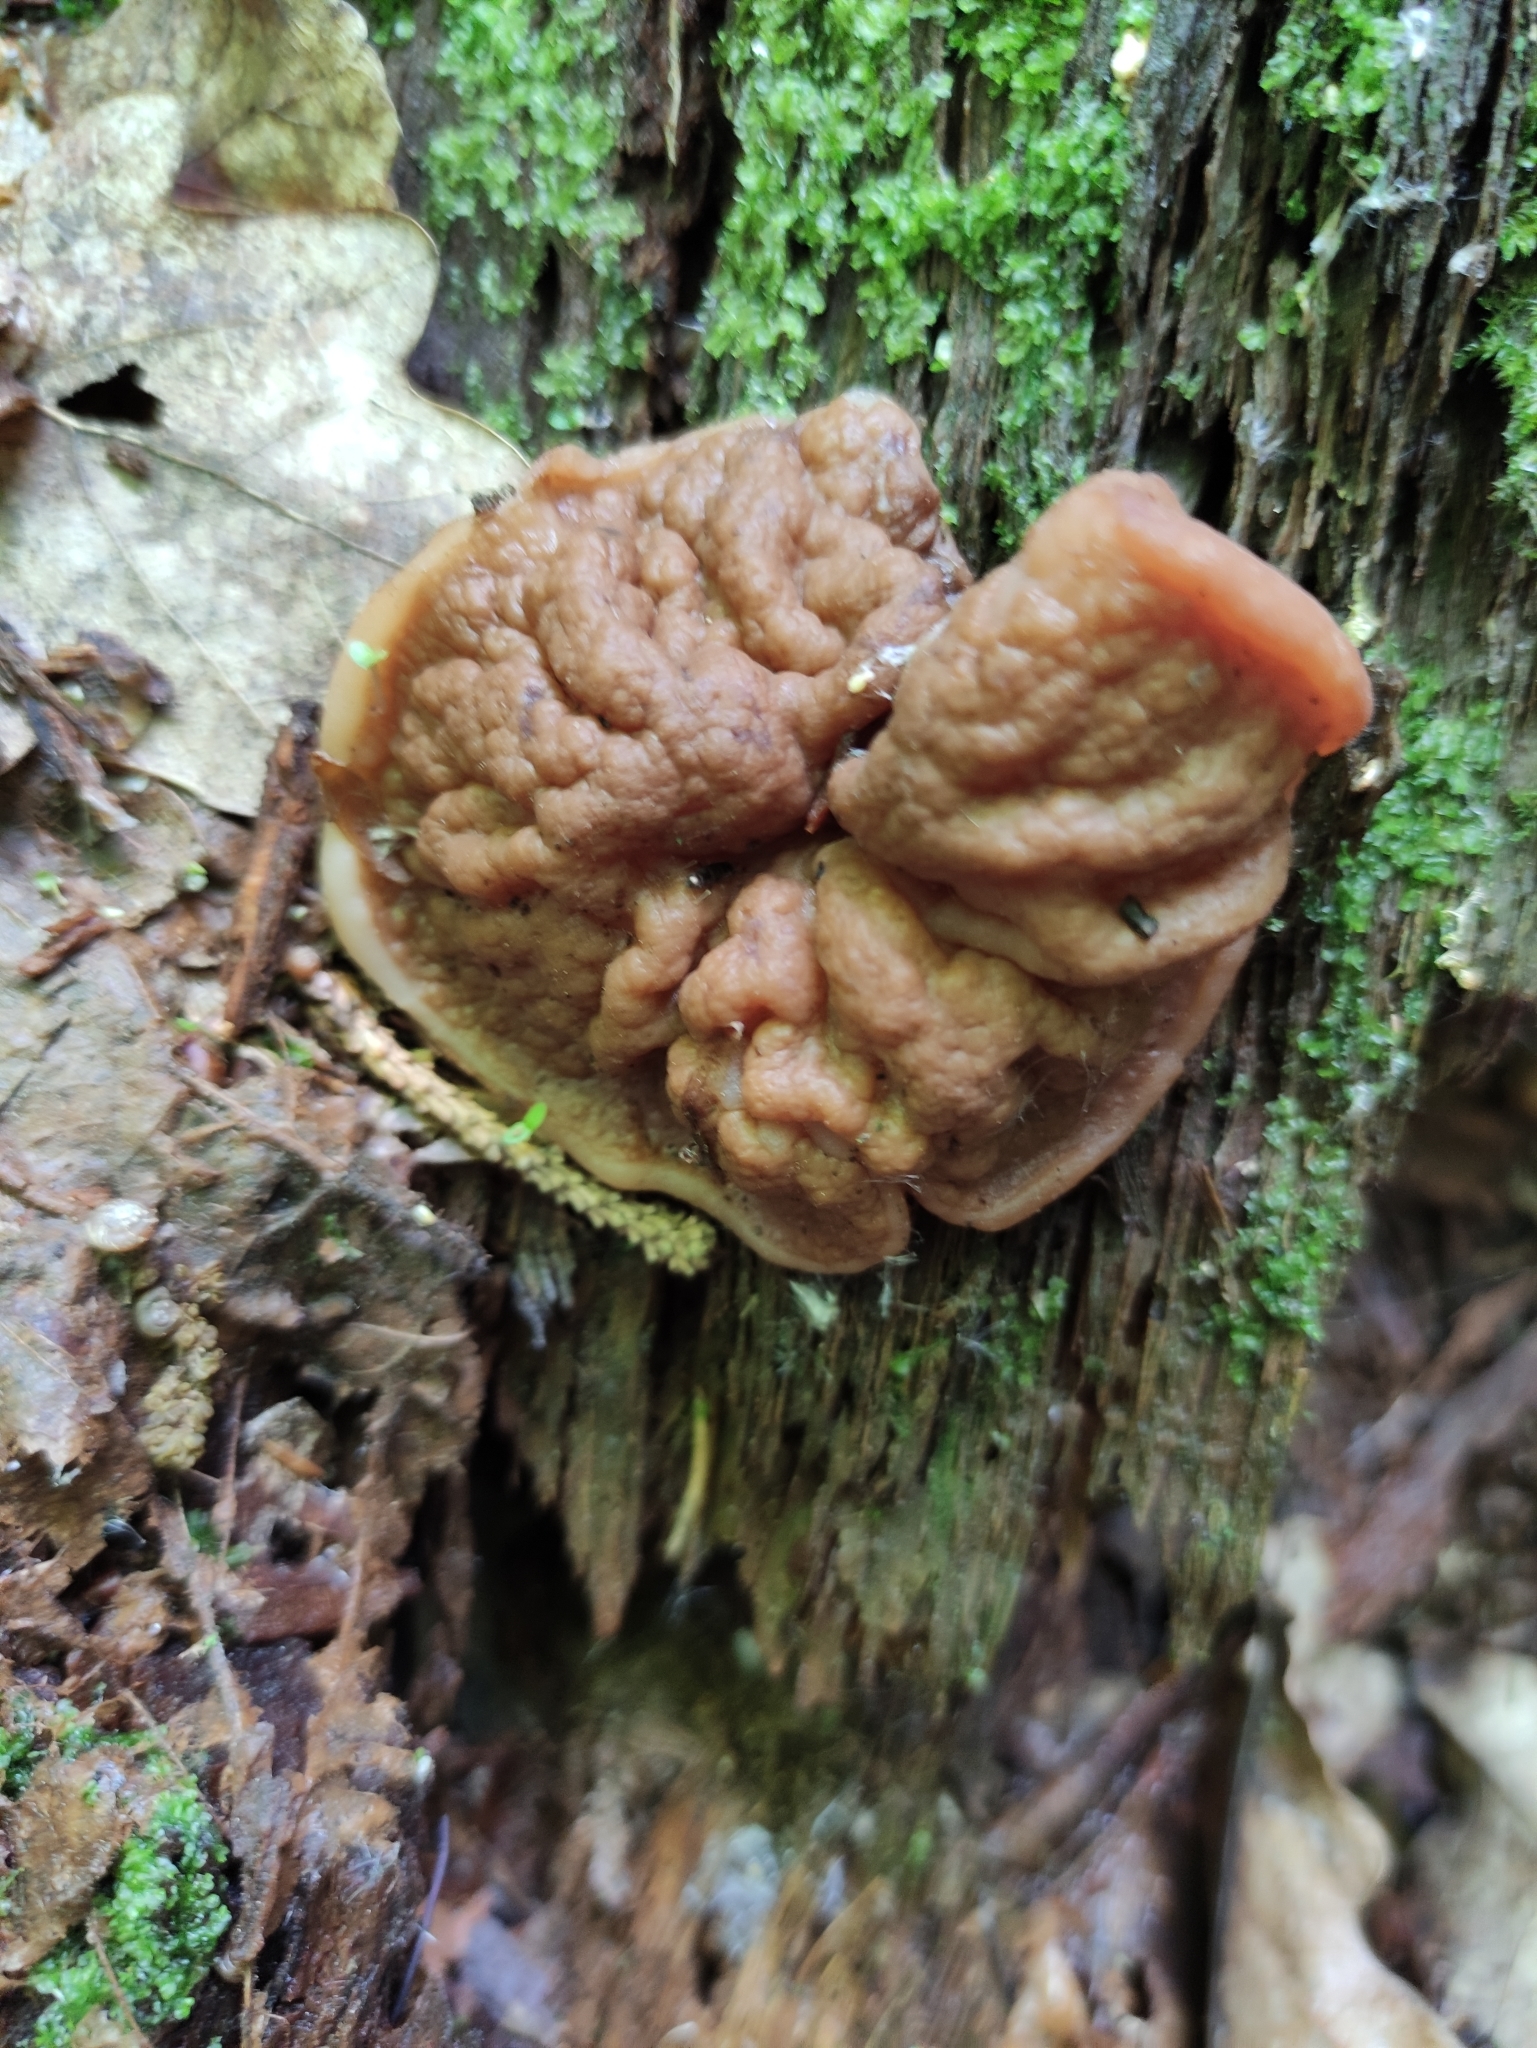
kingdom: Fungi
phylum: Ascomycota
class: Pezizomycetes
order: Pezizales
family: Discinaceae
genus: Discina
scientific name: Discina ancilis
